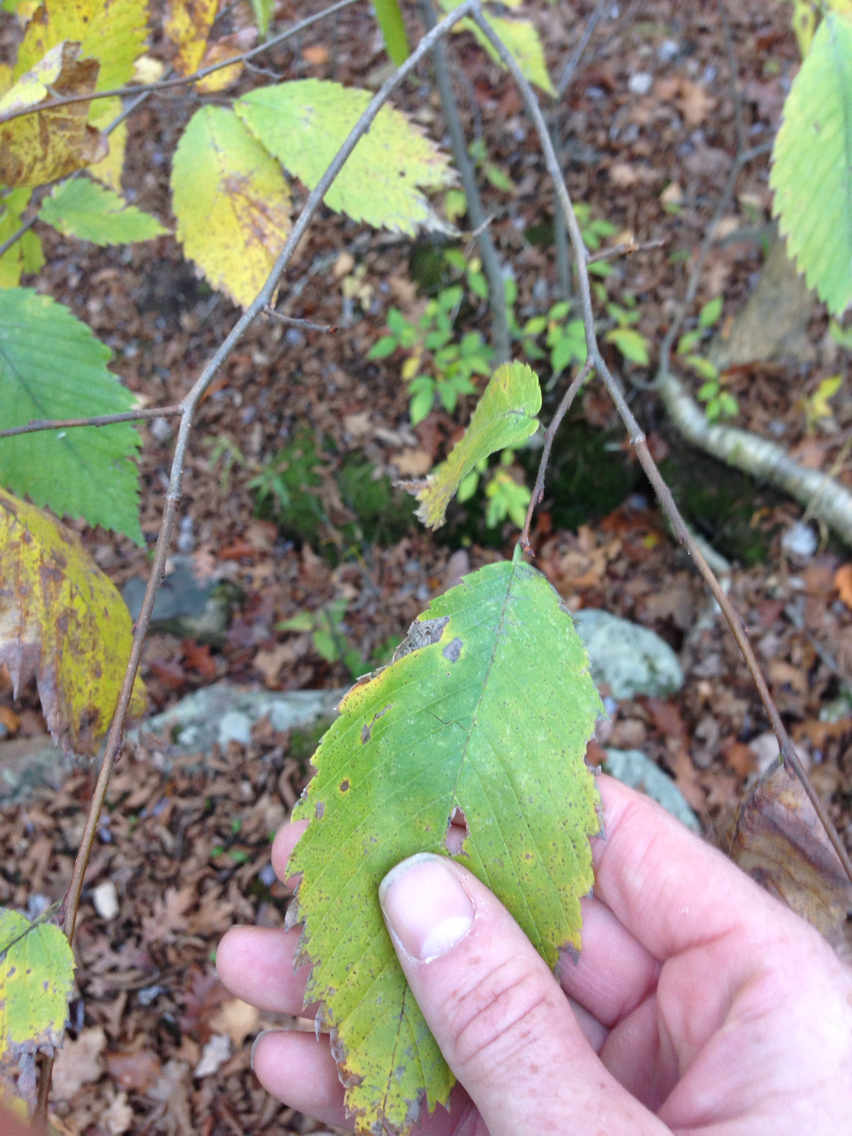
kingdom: Plantae
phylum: Tracheophyta
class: Magnoliopsida
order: Rosales
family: Ulmaceae
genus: Ulmus
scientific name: Ulmus americana
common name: American elm
